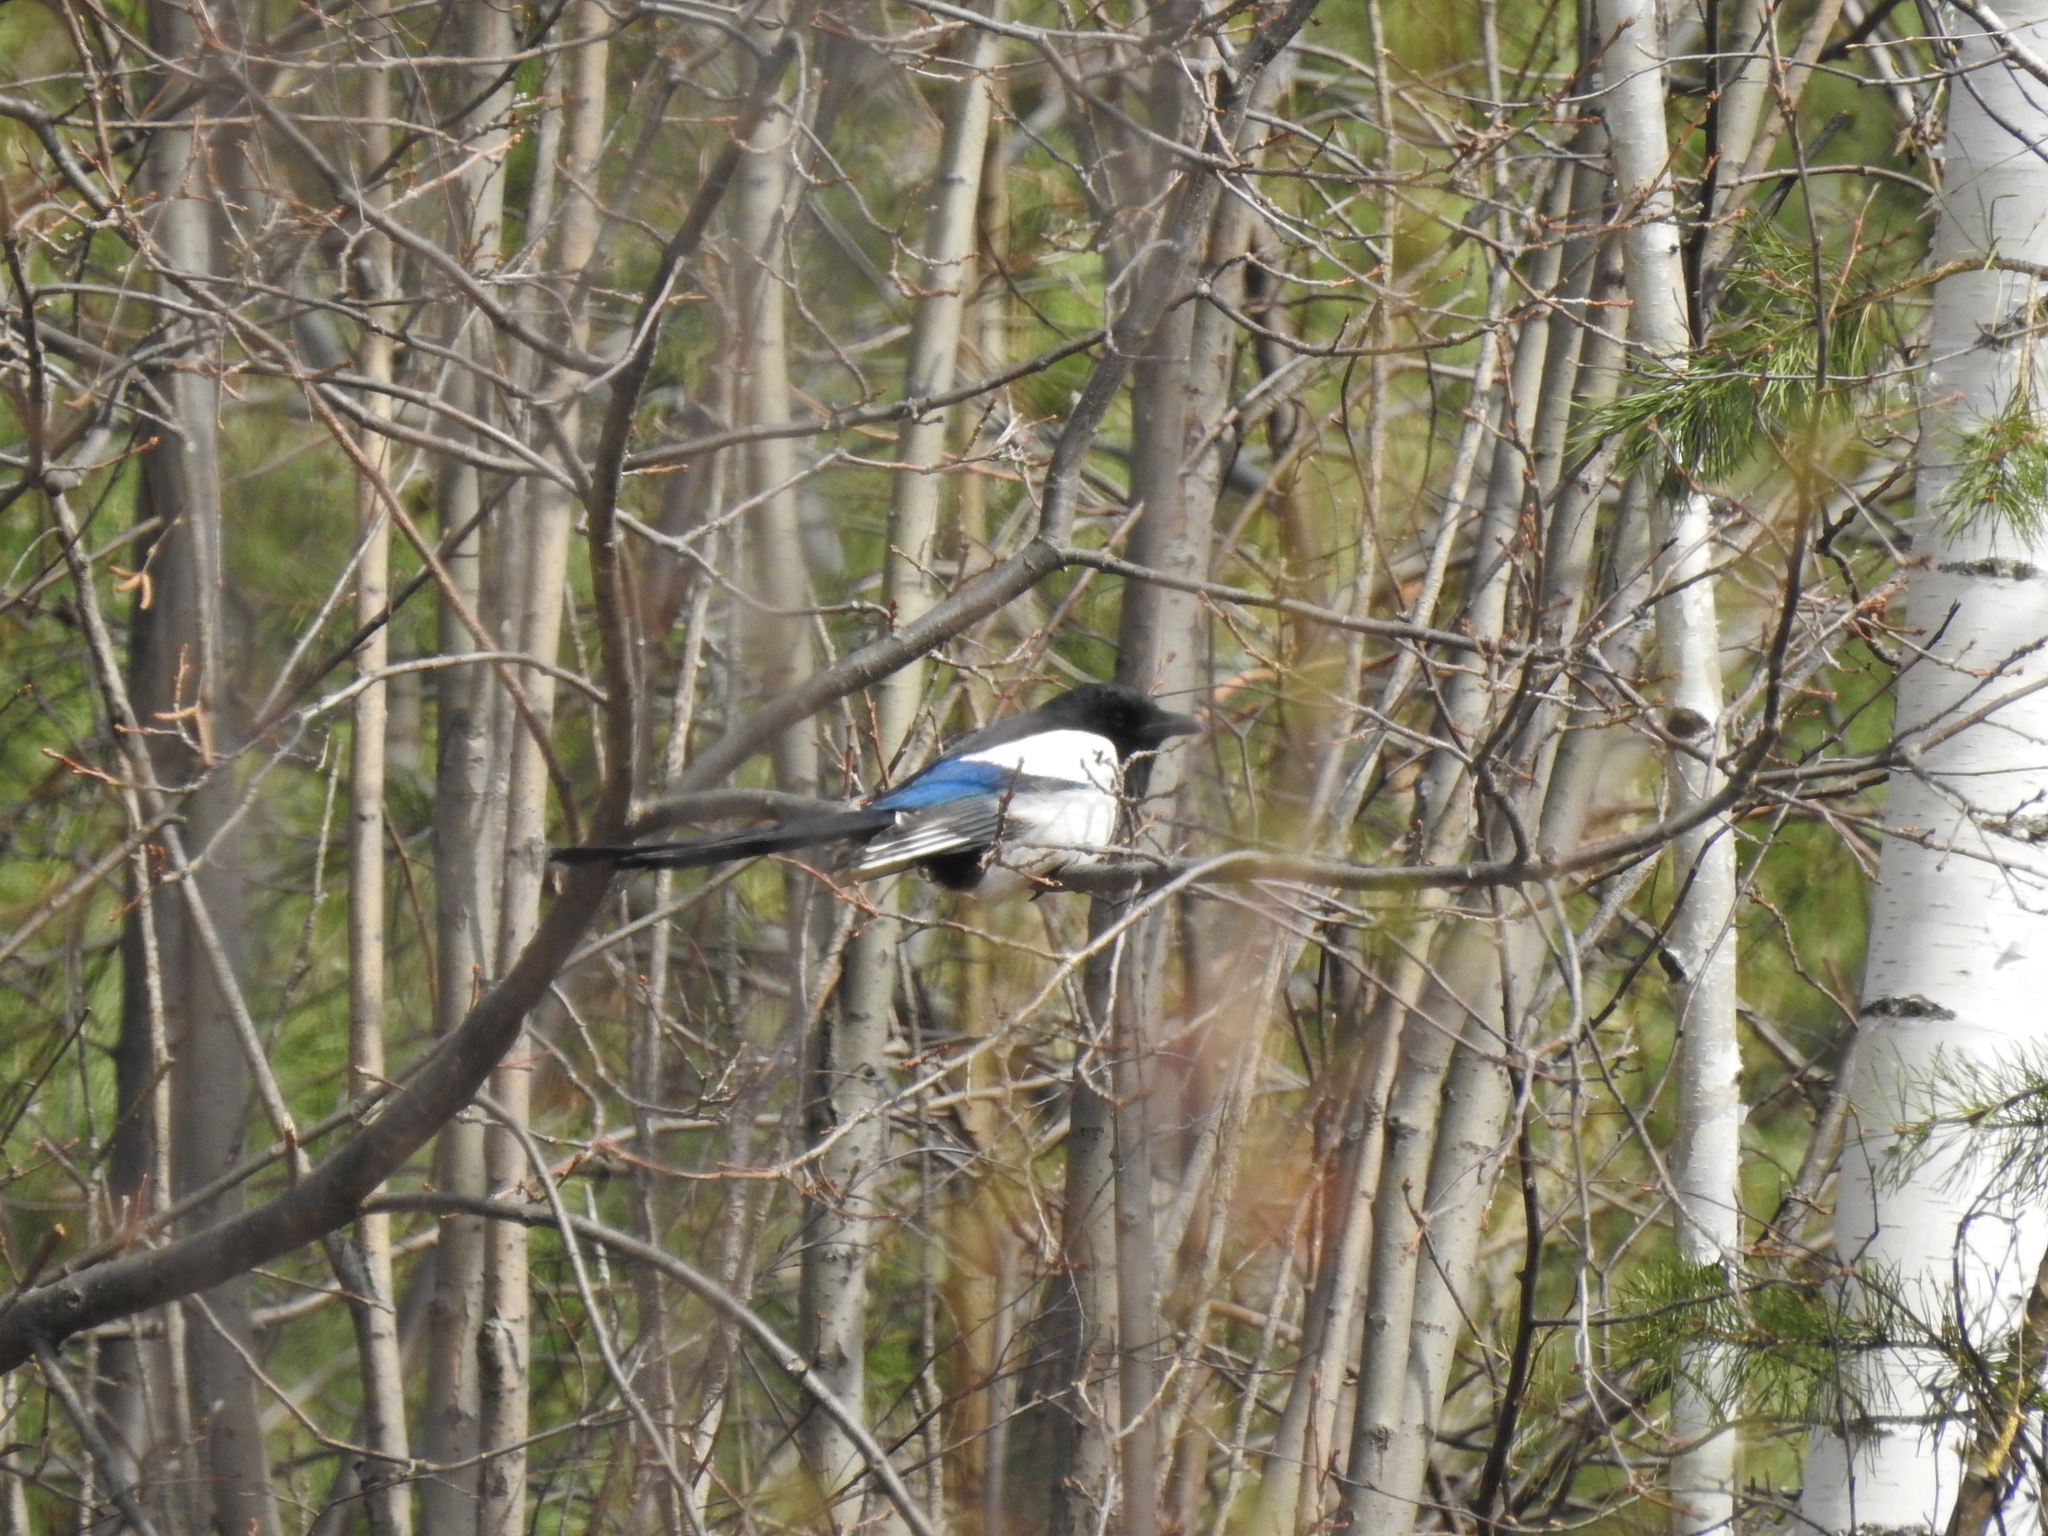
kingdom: Animalia
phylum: Chordata
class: Aves
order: Passeriformes
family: Corvidae
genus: Pica
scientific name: Pica pica
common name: Eurasian magpie
